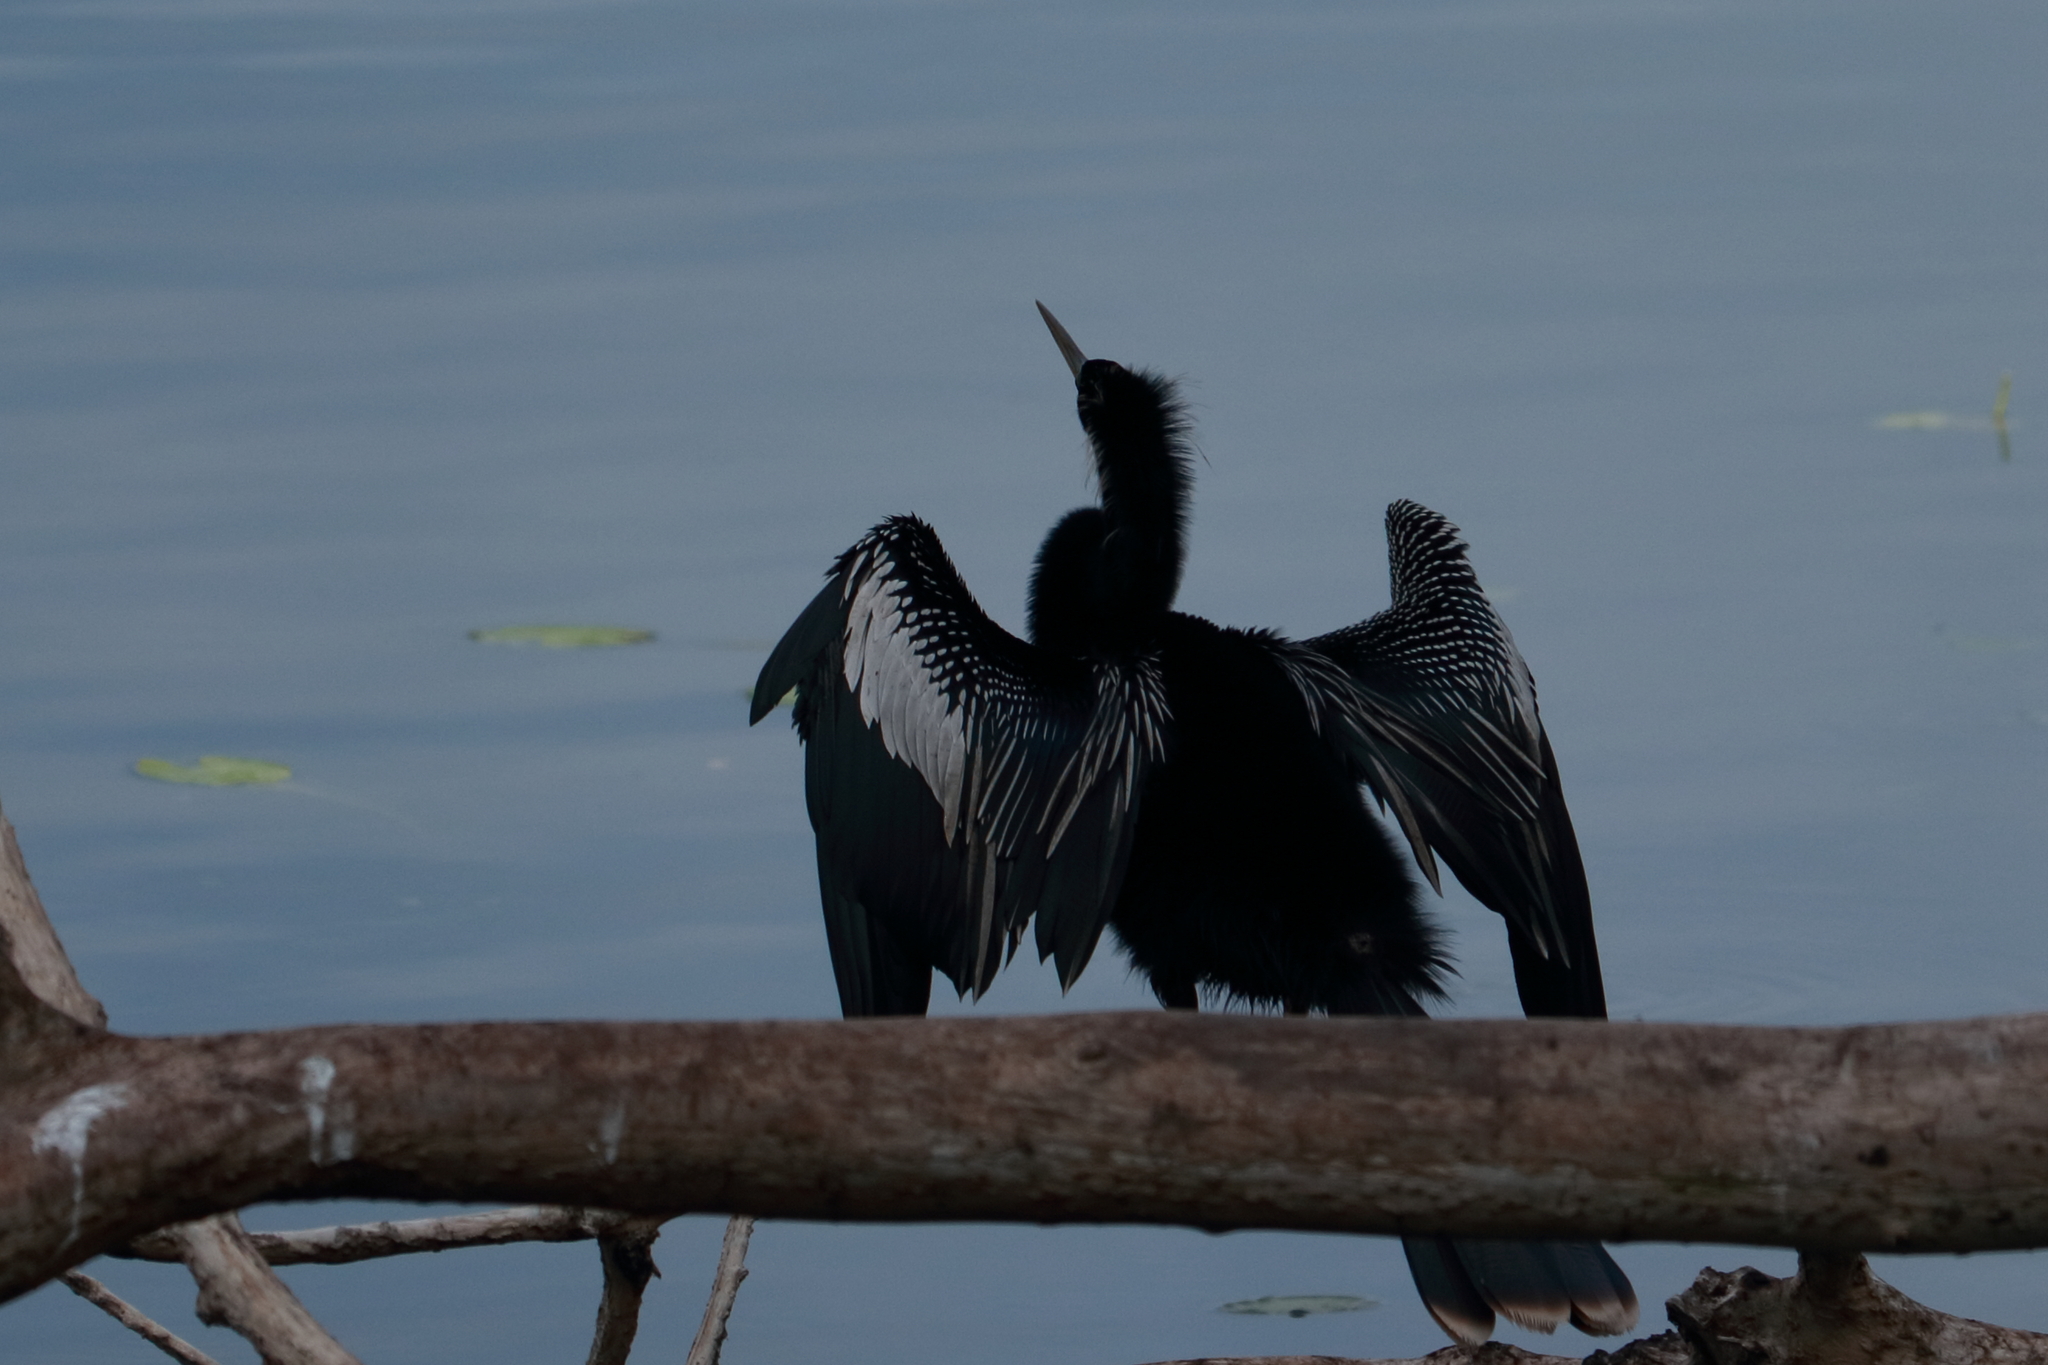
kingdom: Animalia
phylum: Chordata
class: Aves
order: Suliformes
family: Anhingidae
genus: Anhinga
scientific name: Anhinga anhinga
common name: Anhinga
